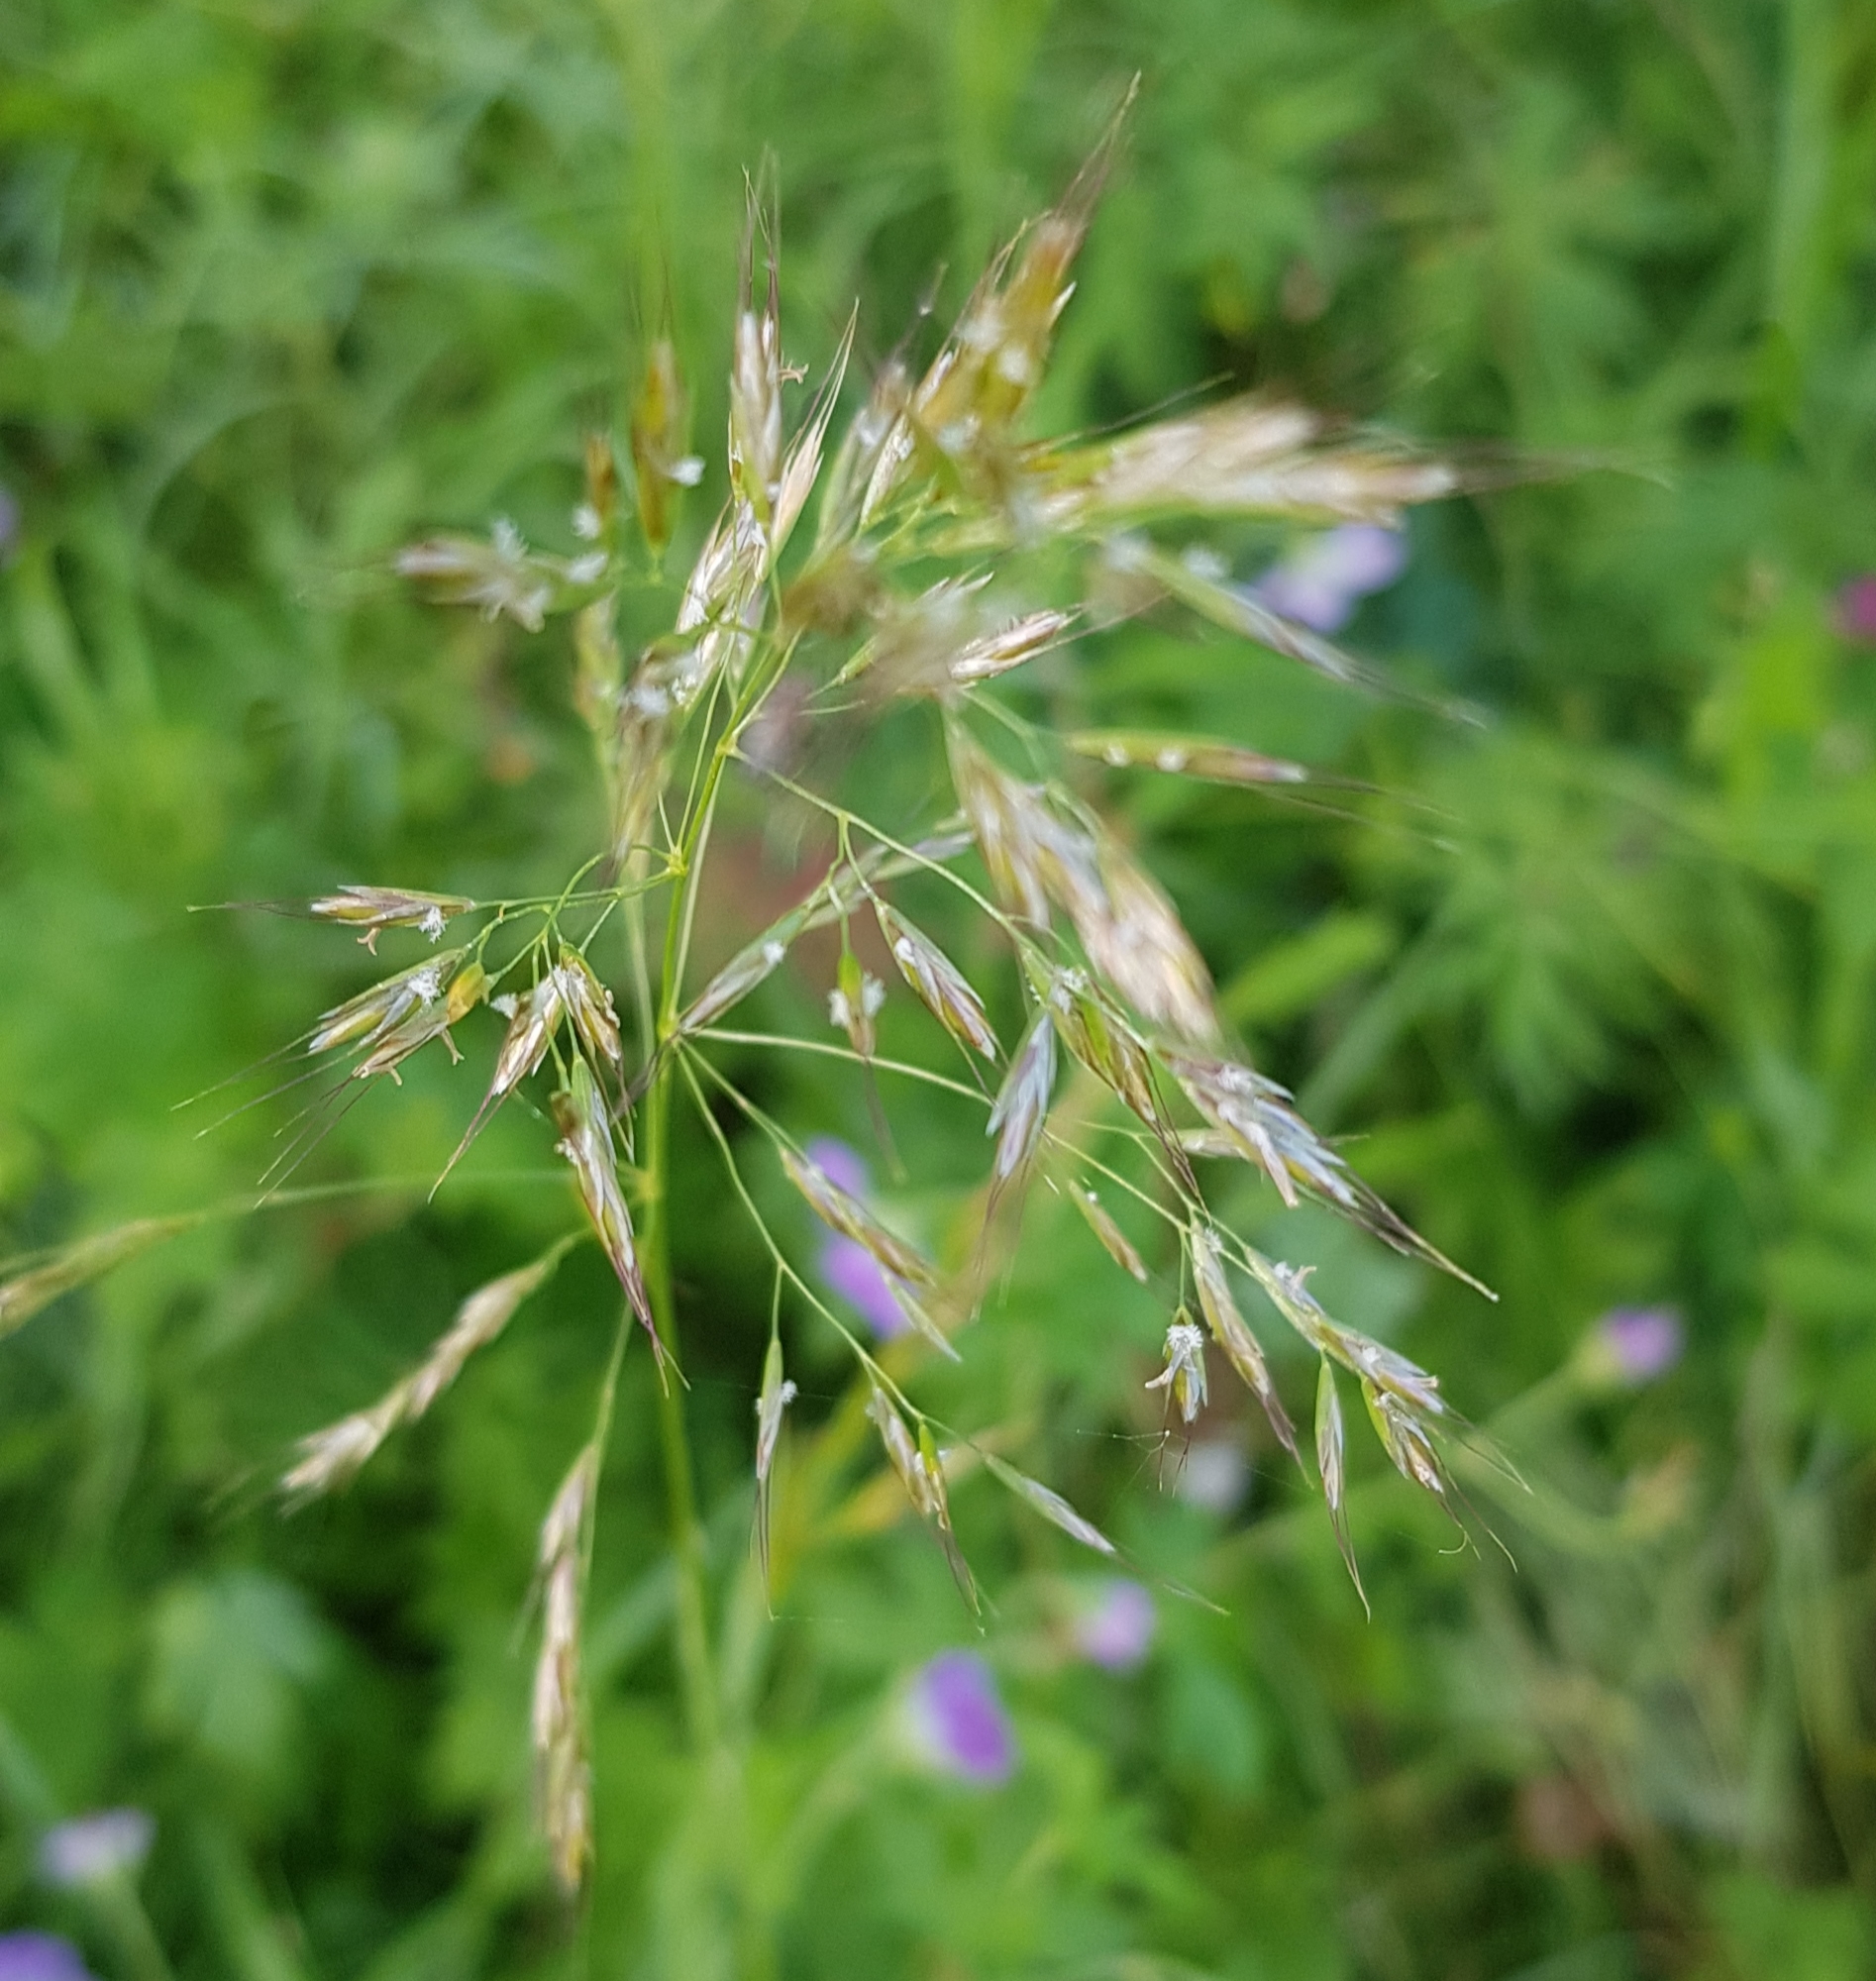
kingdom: Plantae
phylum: Tracheophyta
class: Liliopsida
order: Poales
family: Poaceae
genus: Achnatherum
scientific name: Achnatherum sibiricum
